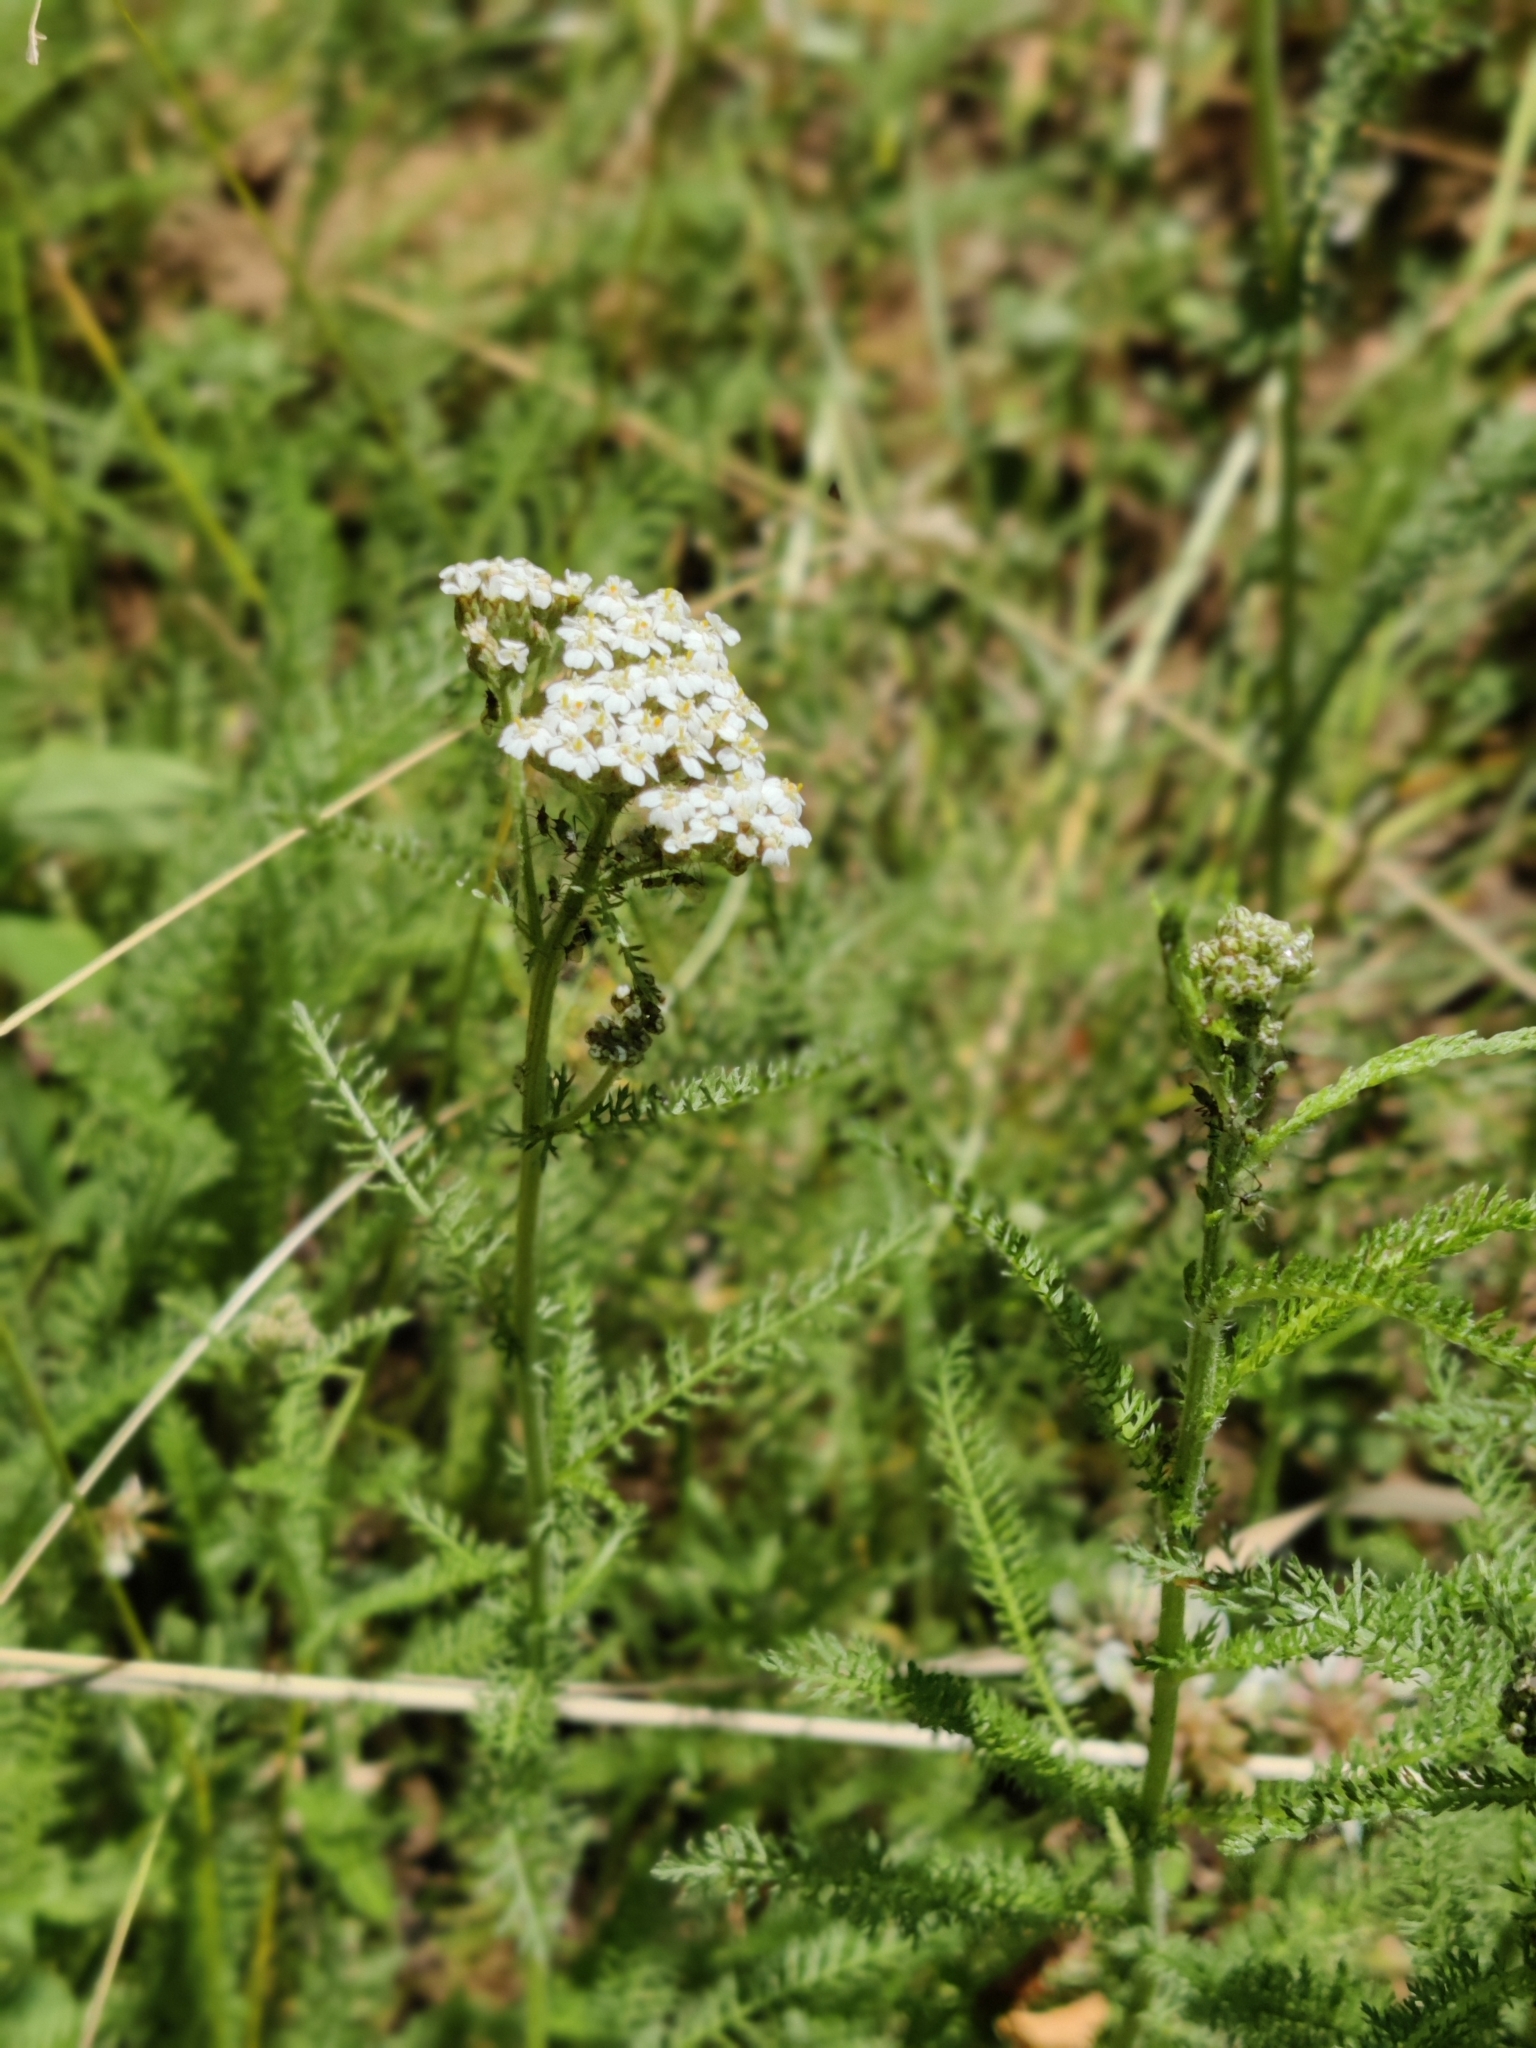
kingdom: Plantae
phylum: Tracheophyta
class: Magnoliopsida
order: Asterales
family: Asteraceae
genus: Achillea
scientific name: Achillea millefolium
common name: Yarrow
